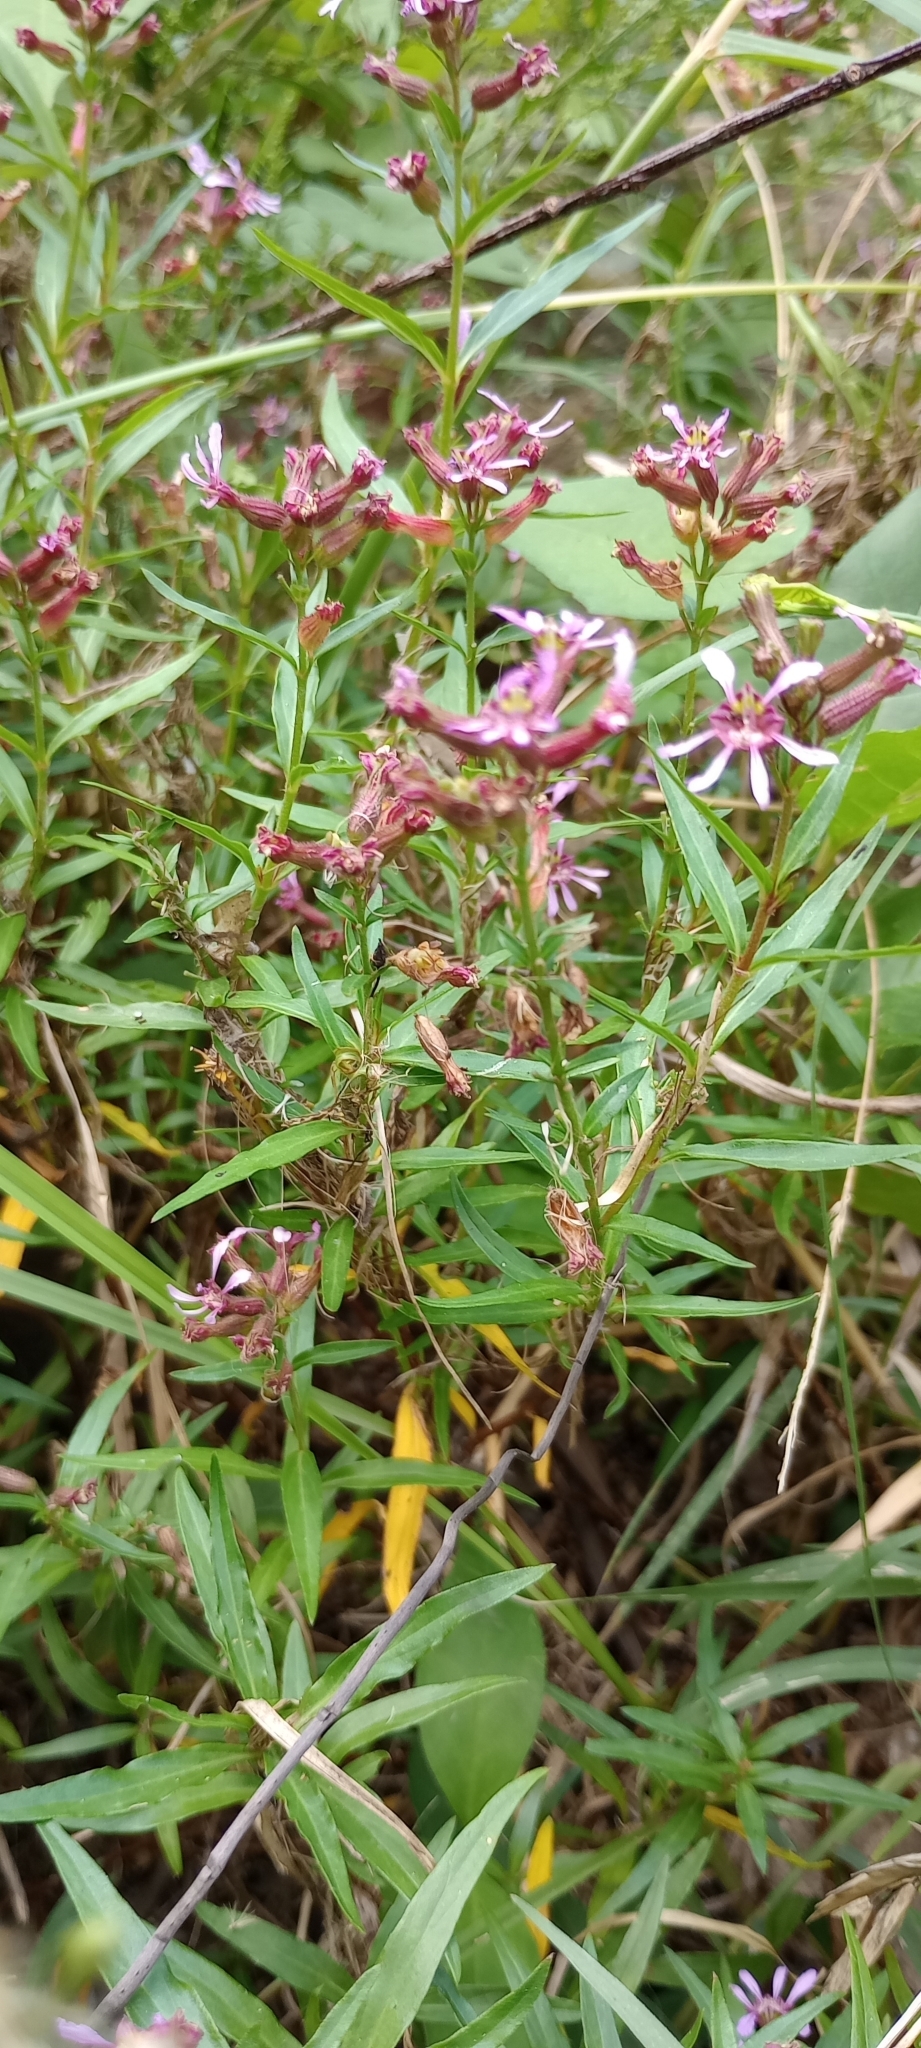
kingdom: Plantae
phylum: Tracheophyta
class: Magnoliopsida
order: Myrtales
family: Lythraceae
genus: Cuphea
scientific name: Cuphea fruticosa
